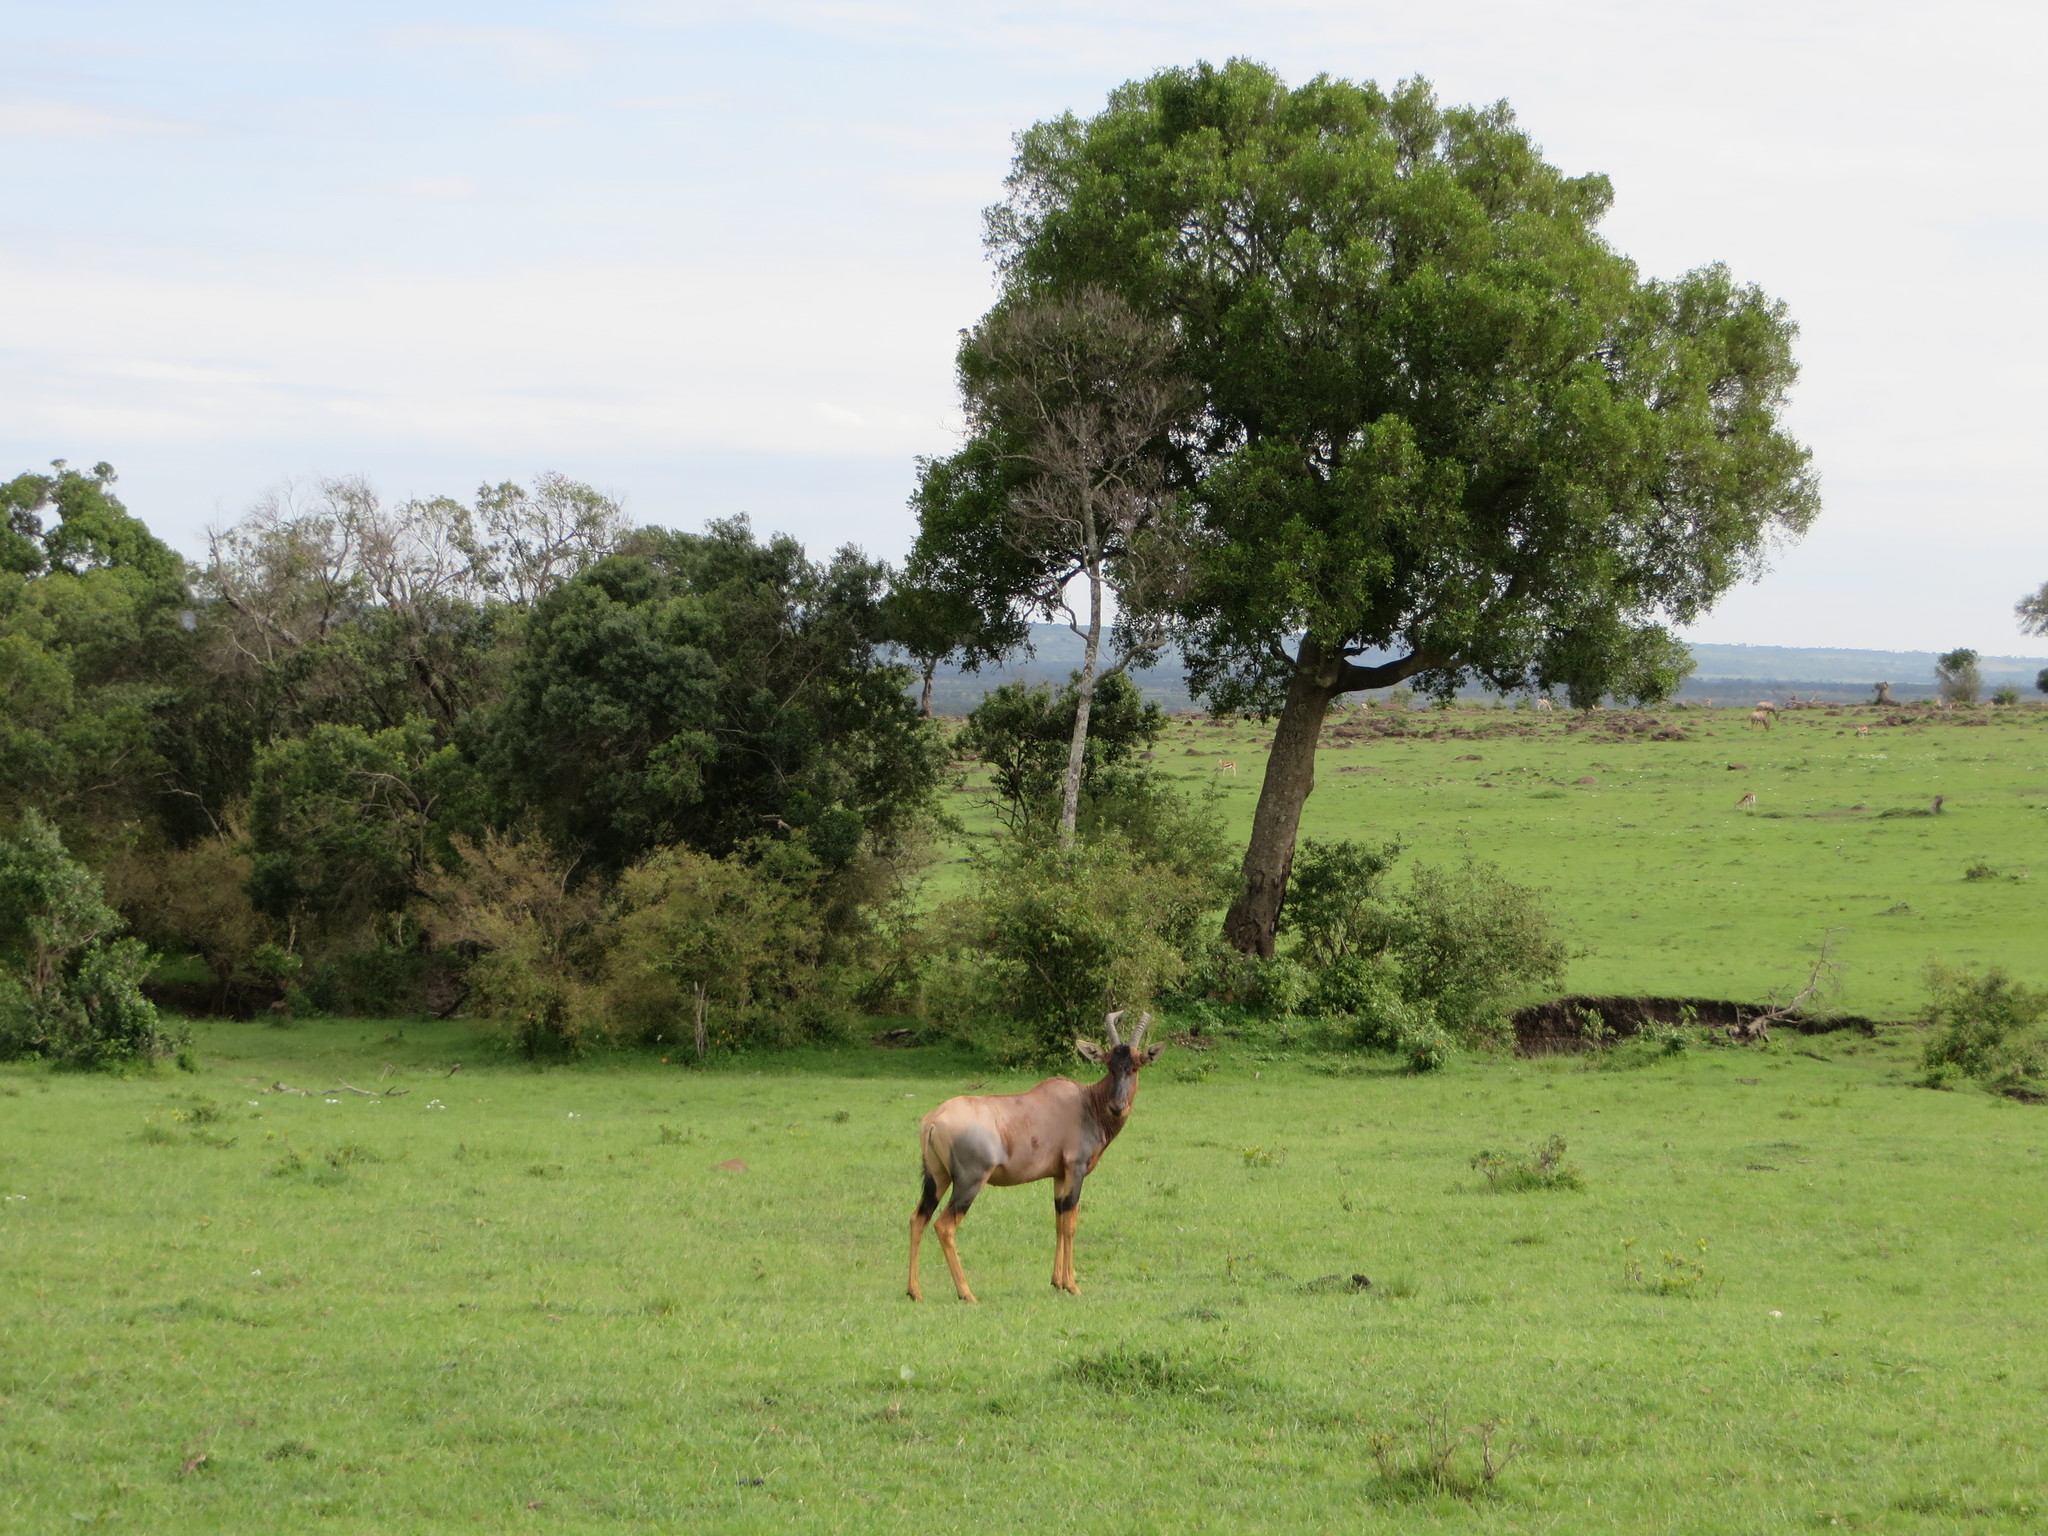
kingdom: Animalia
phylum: Chordata
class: Mammalia
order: Artiodactyla
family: Bovidae
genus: Damaliscus
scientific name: Damaliscus korrigum
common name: Topi
